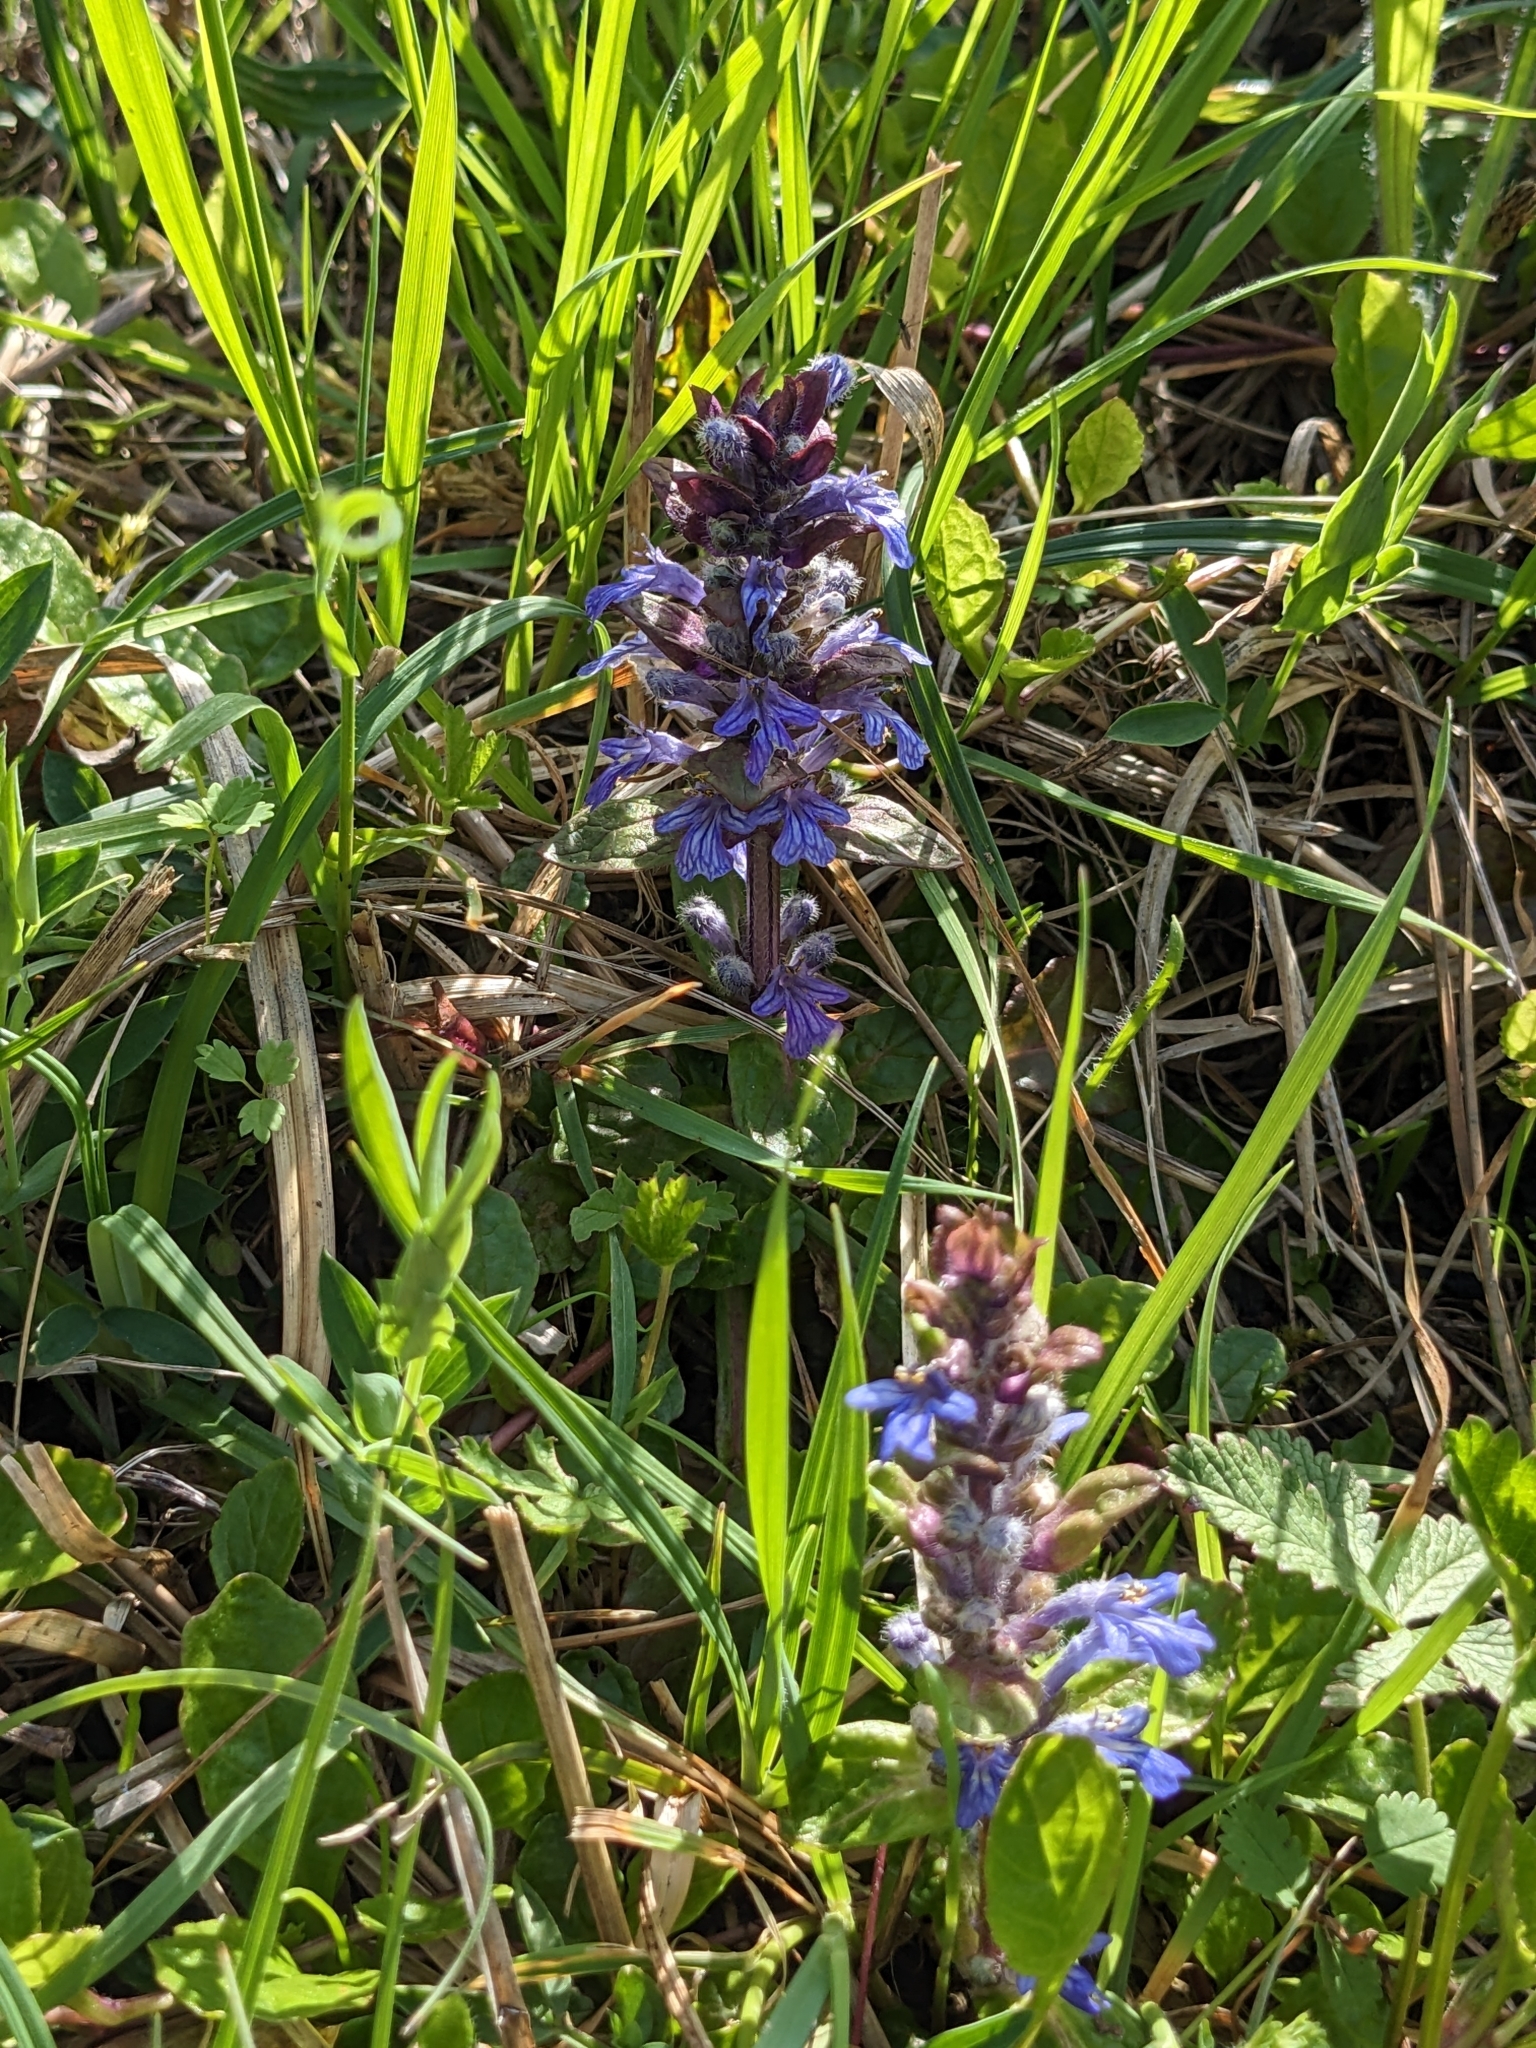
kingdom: Plantae
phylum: Tracheophyta
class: Magnoliopsida
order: Lamiales
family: Lamiaceae
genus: Ajuga
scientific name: Ajuga reptans
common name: Bugle
